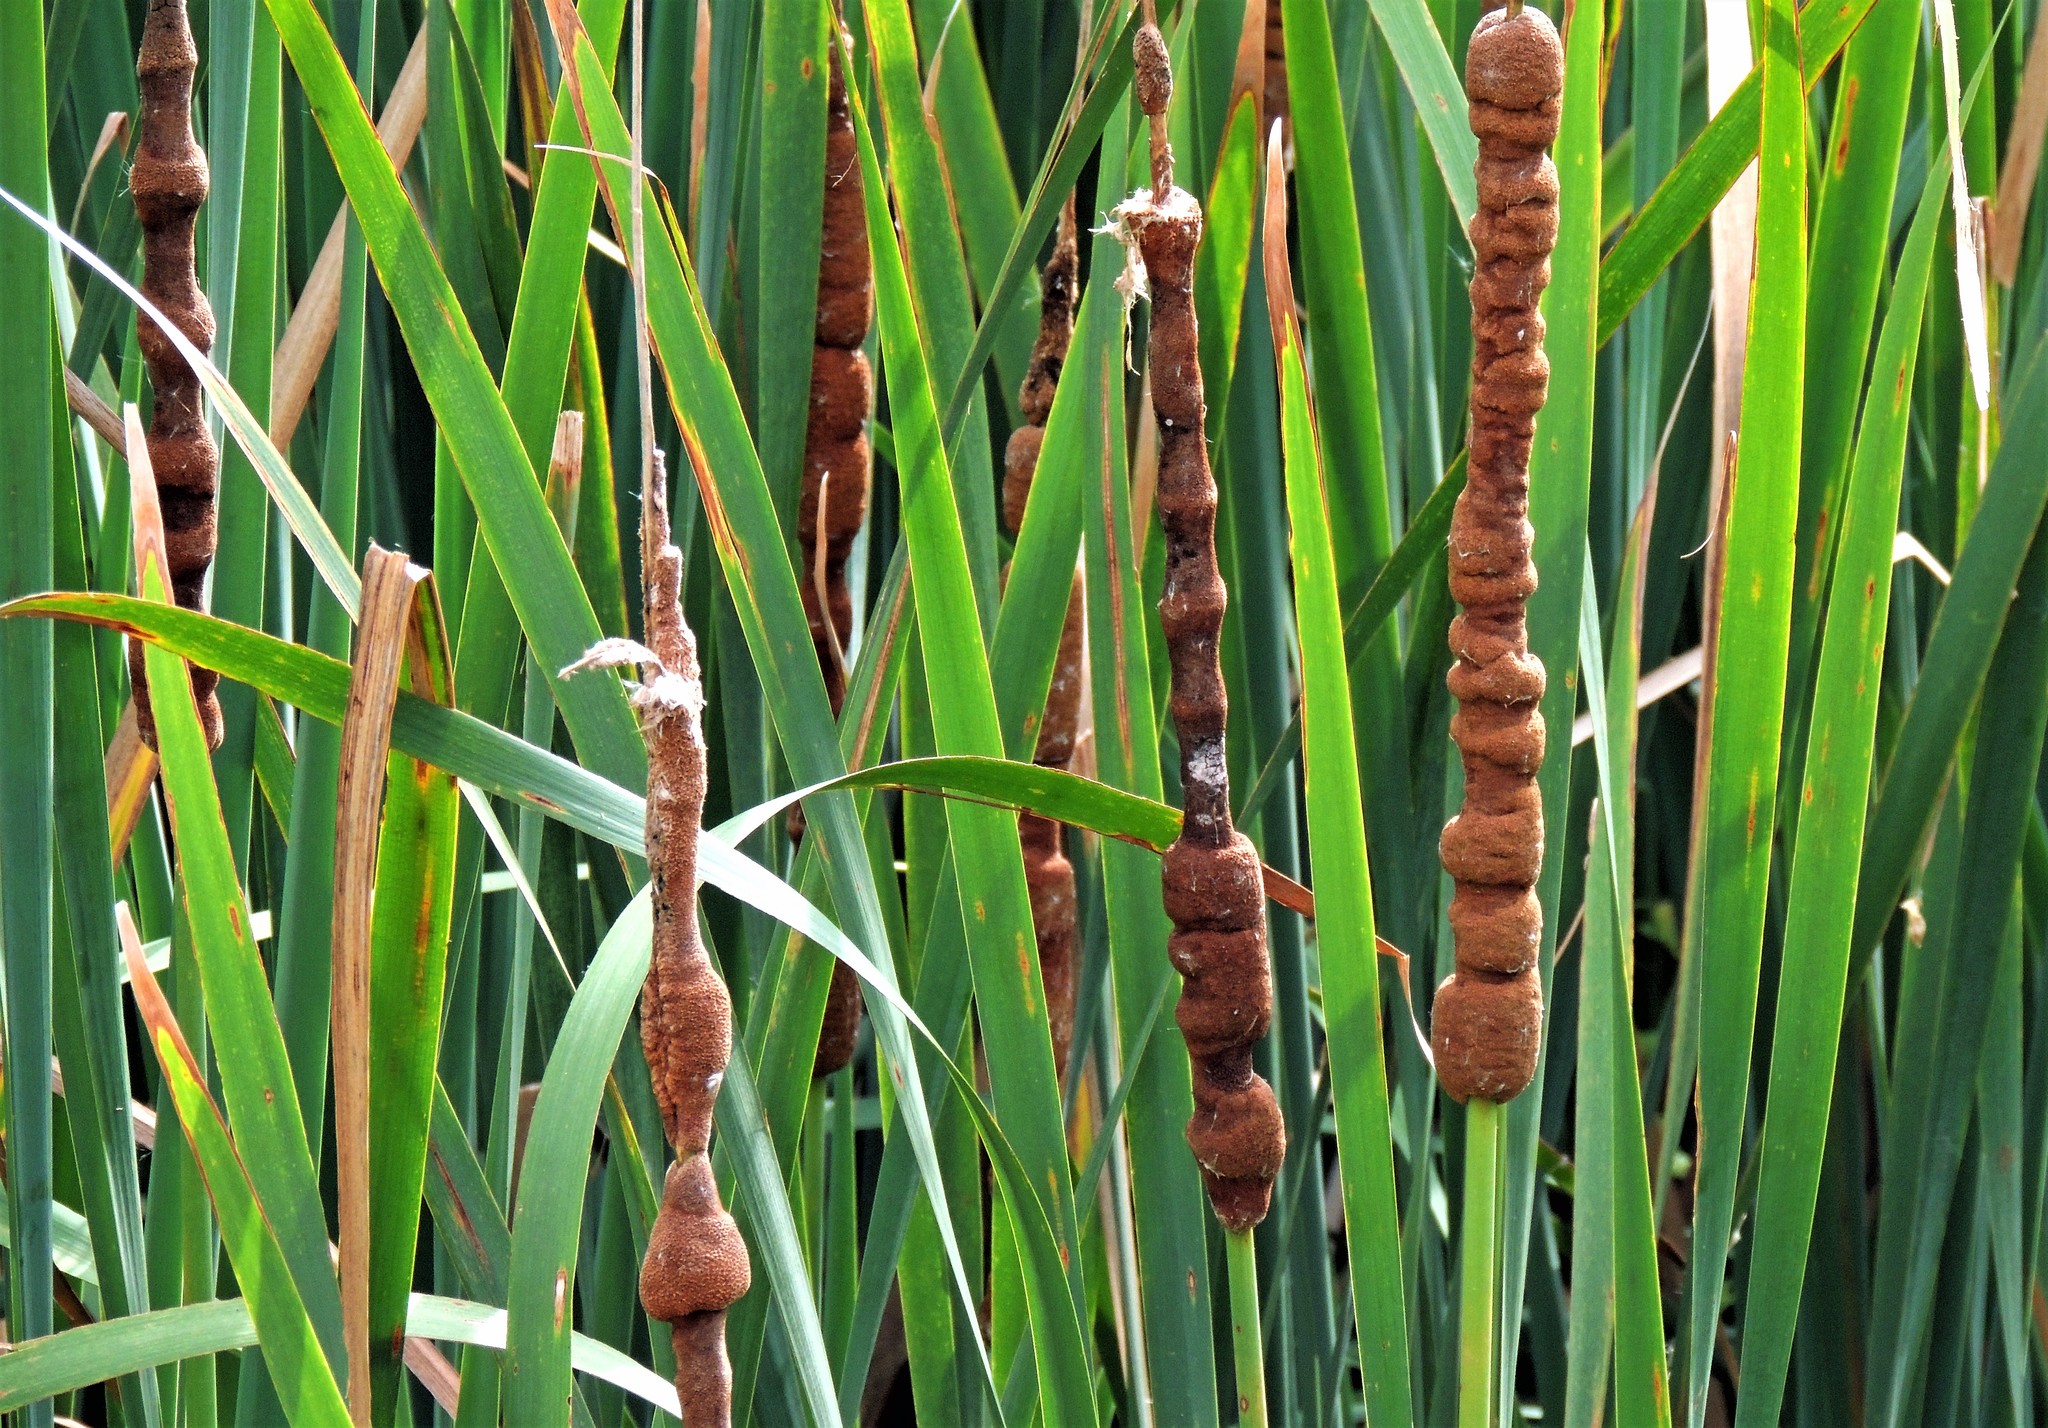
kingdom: Plantae
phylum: Tracheophyta
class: Liliopsida
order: Poales
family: Typhaceae
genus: Typha
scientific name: Typha latifolia
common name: Broadleaf cattail
